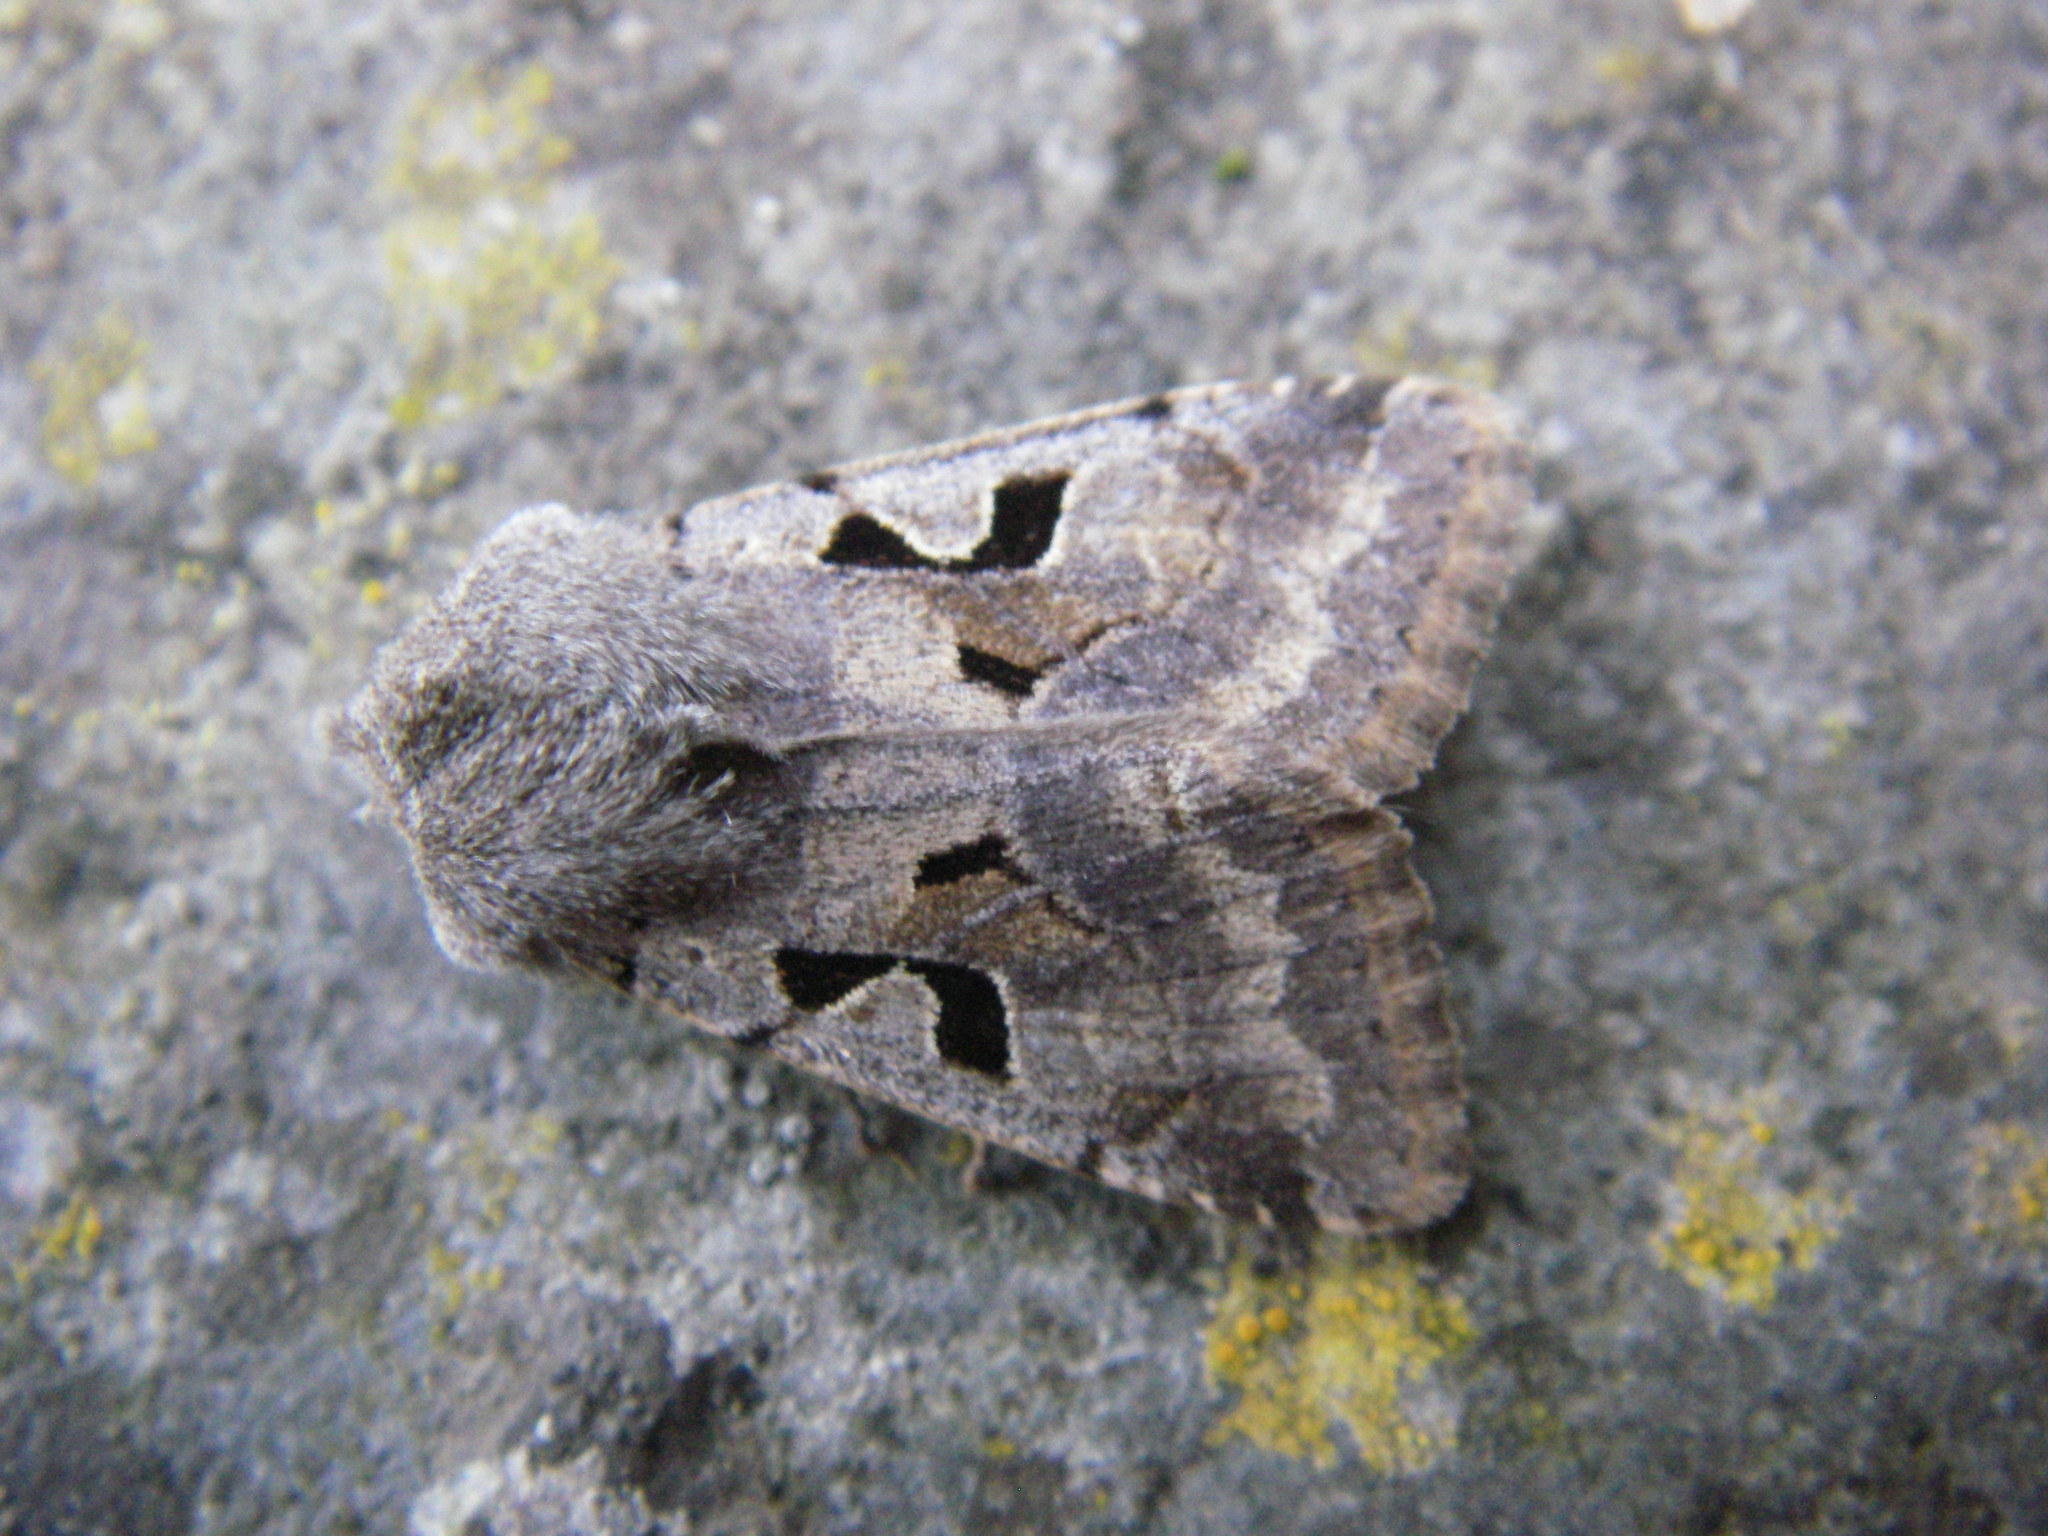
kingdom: Animalia
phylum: Arthropoda
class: Insecta
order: Lepidoptera
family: Noctuidae
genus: Orthosia
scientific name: Orthosia gothica
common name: Hebrew character
